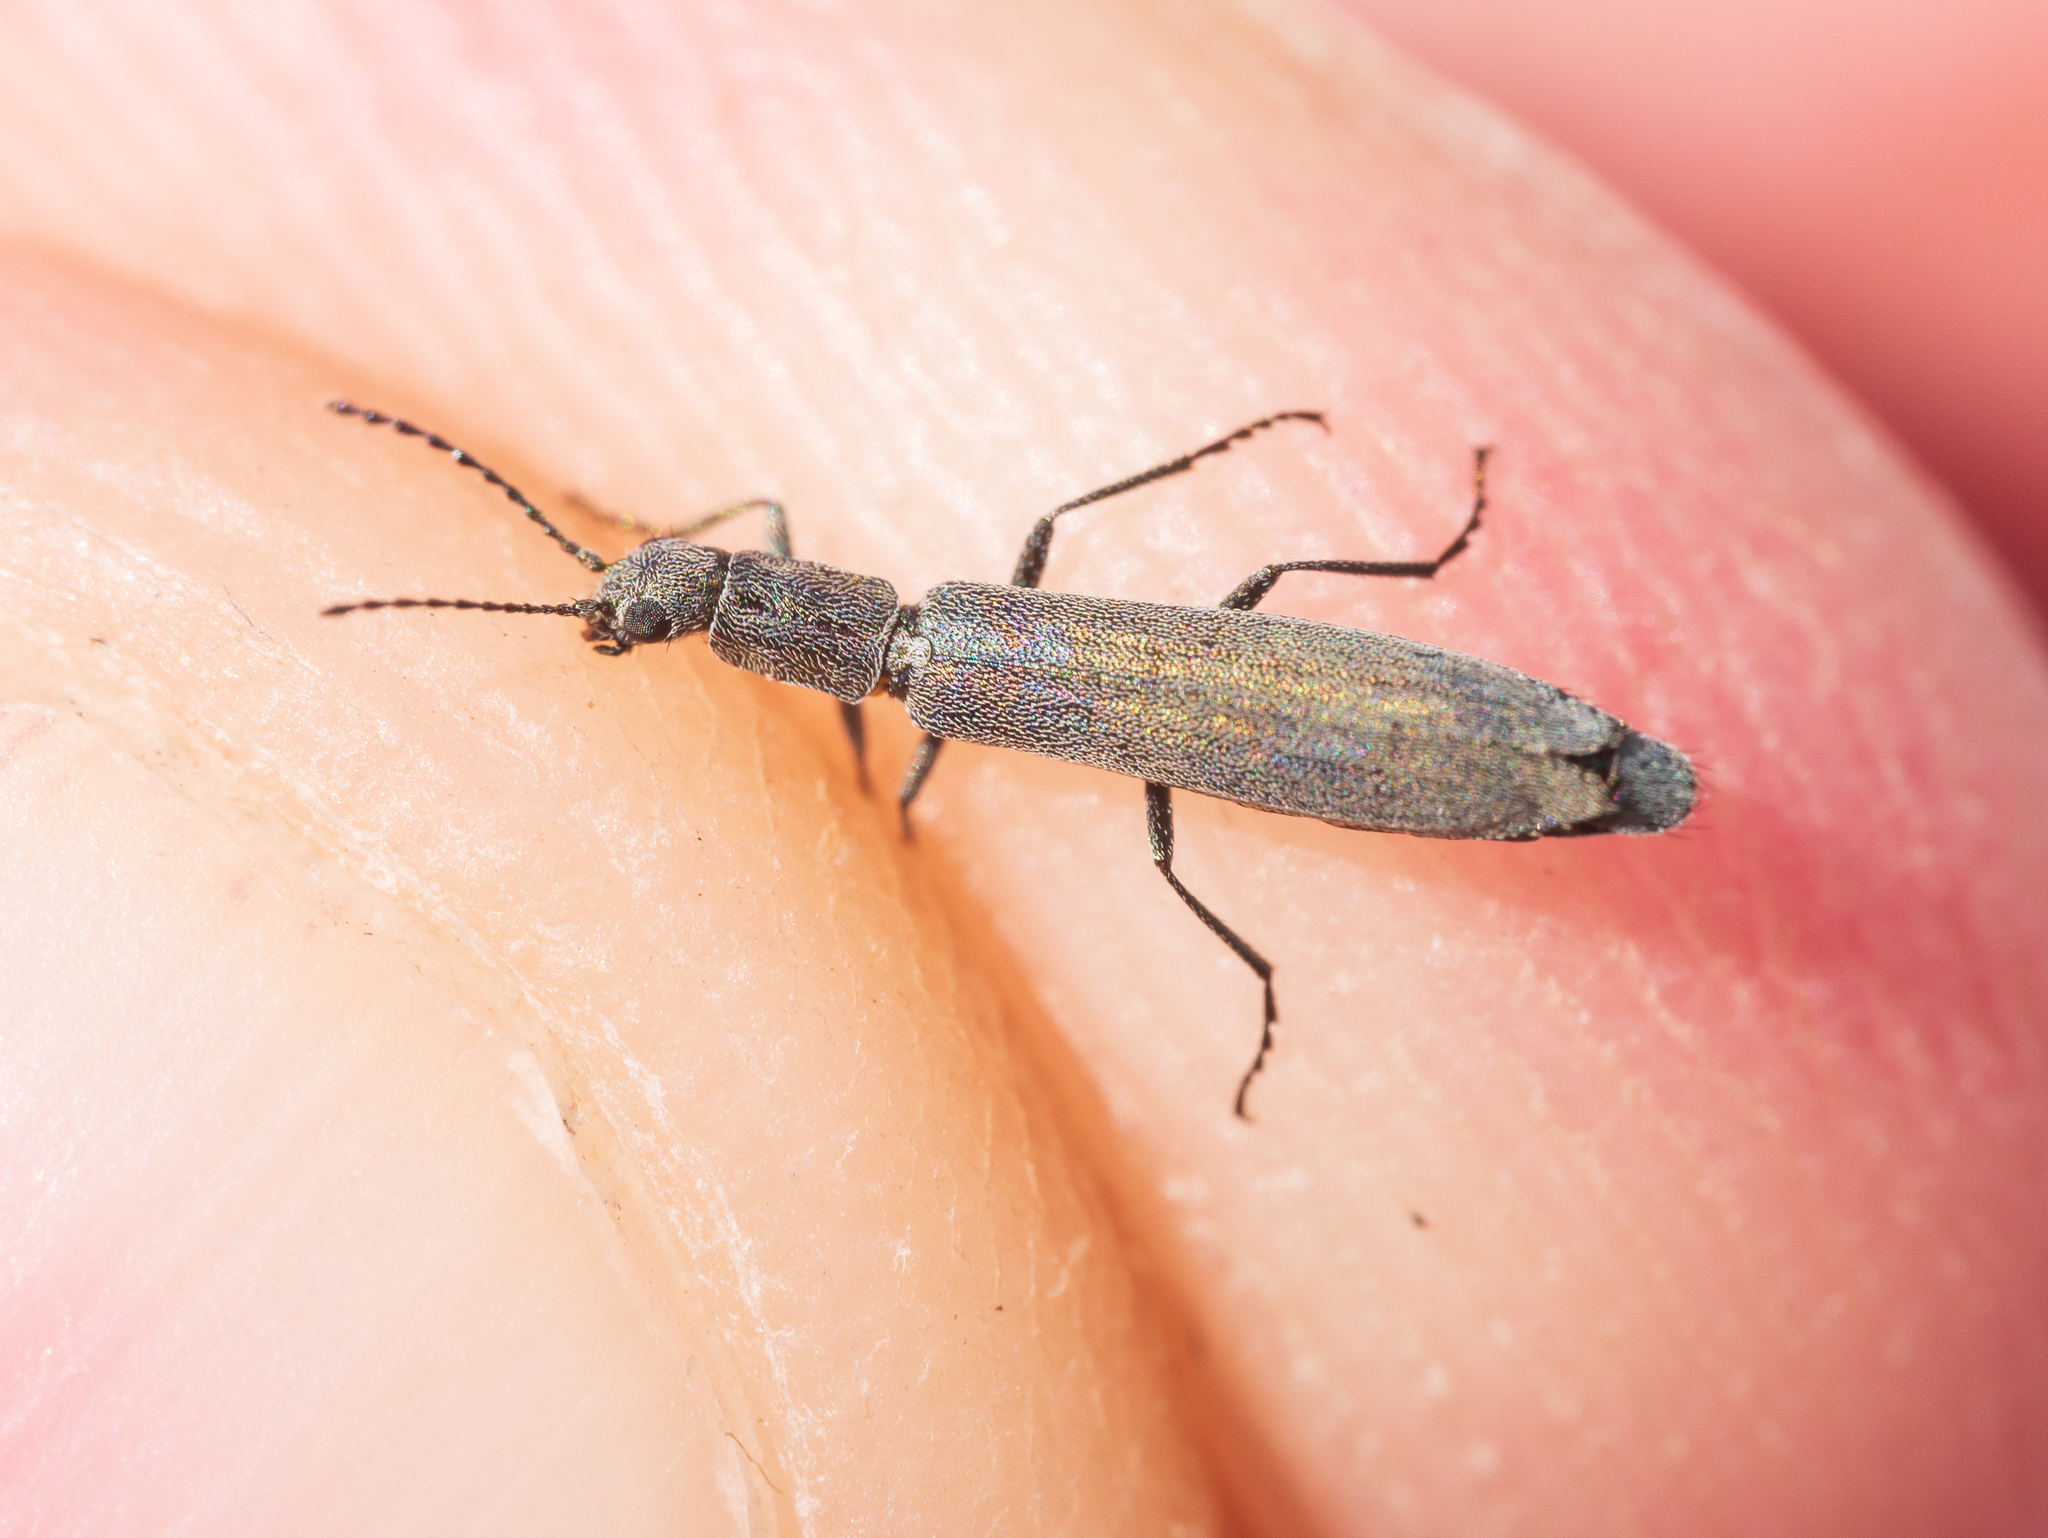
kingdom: Animalia
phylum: Arthropoda
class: Insecta
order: Coleoptera
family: Melyridae
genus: Dolichosoma
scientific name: Dolichosoma lineare
